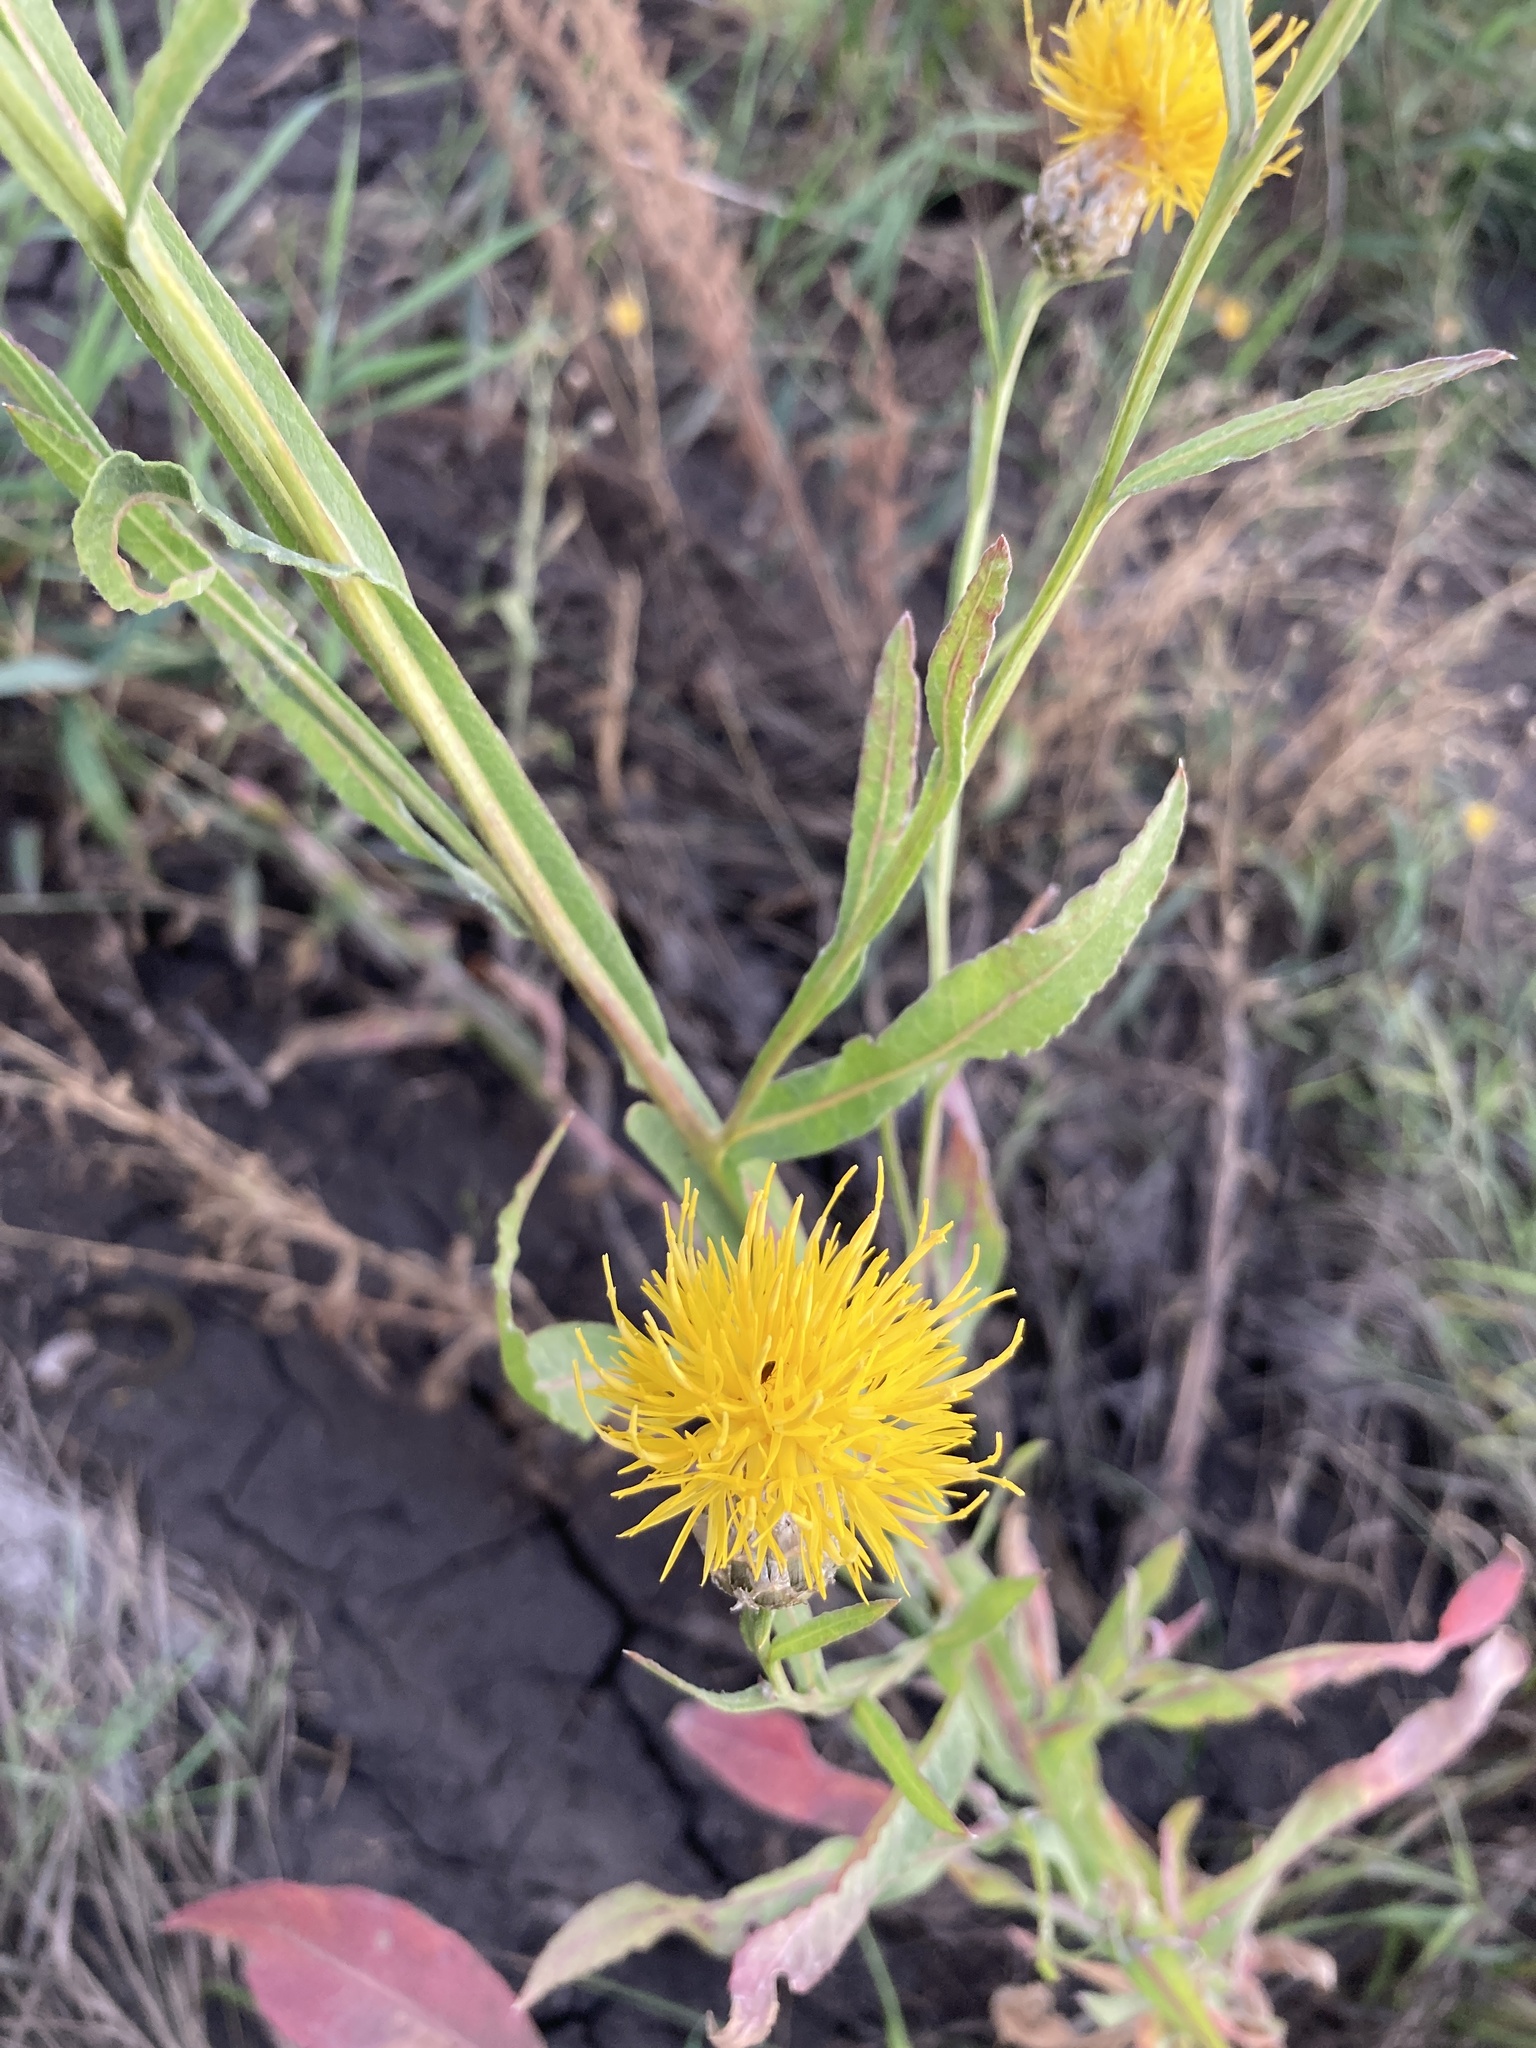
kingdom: Plantae
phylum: Tracheophyta
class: Magnoliopsida
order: Asterales
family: Asteraceae
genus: Centaurea
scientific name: Centaurea glastifolia
